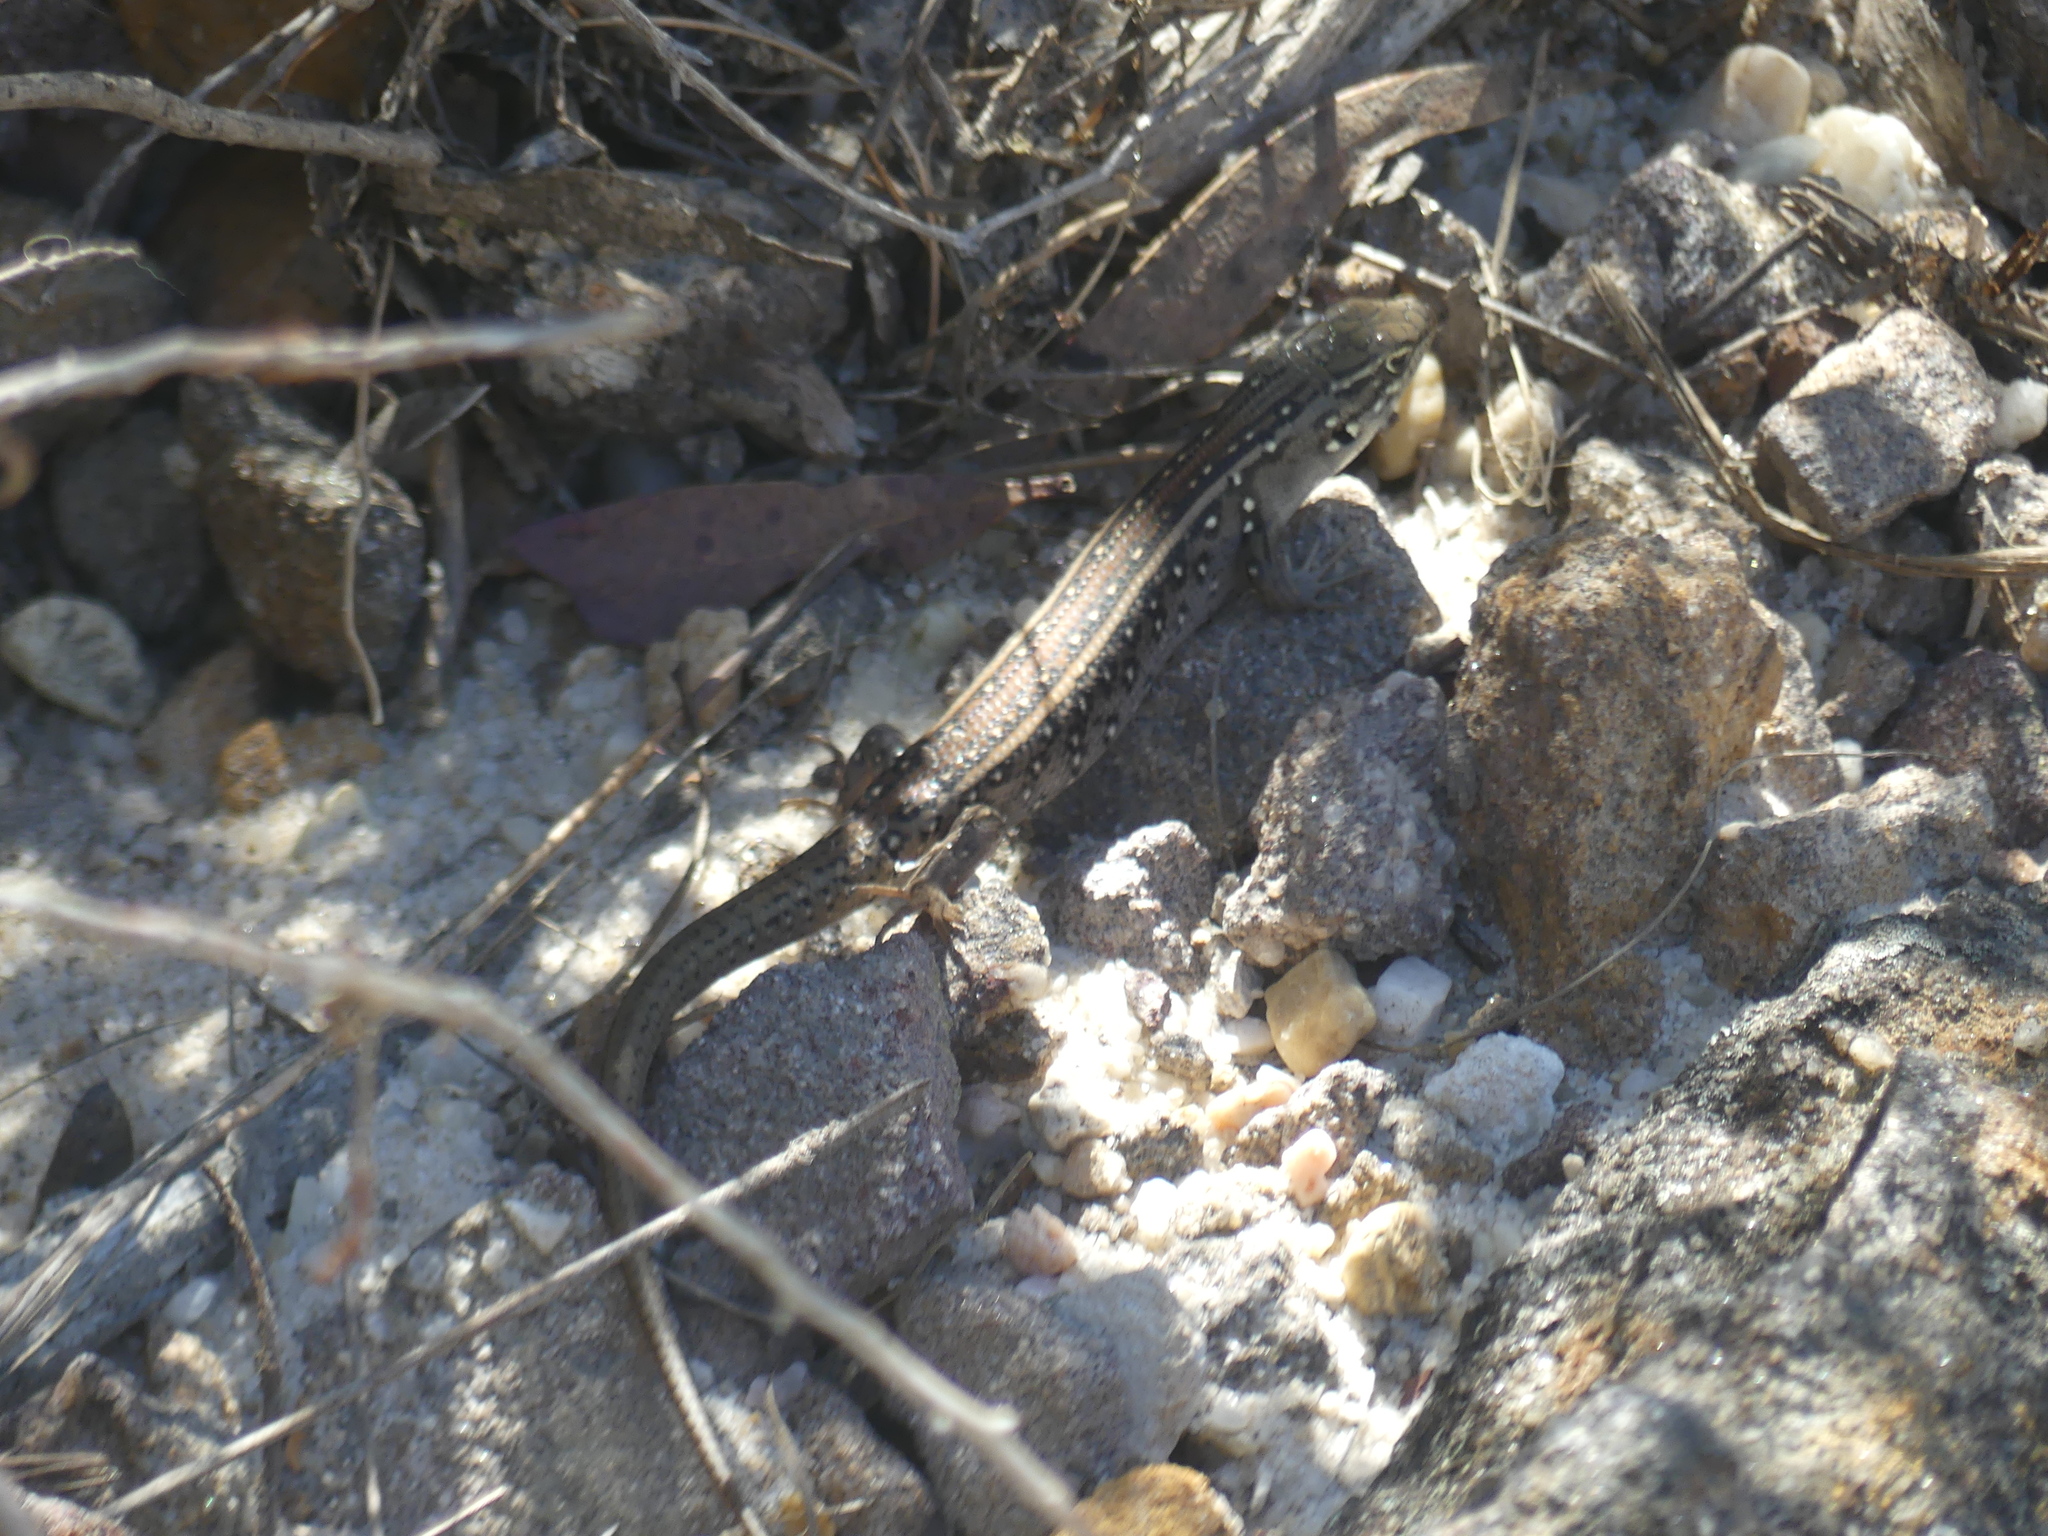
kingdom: Animalia
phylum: Chordata
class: Squamata
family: Scincidae
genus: Liopholis
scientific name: Liopholis whitii
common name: White's rock-skink
